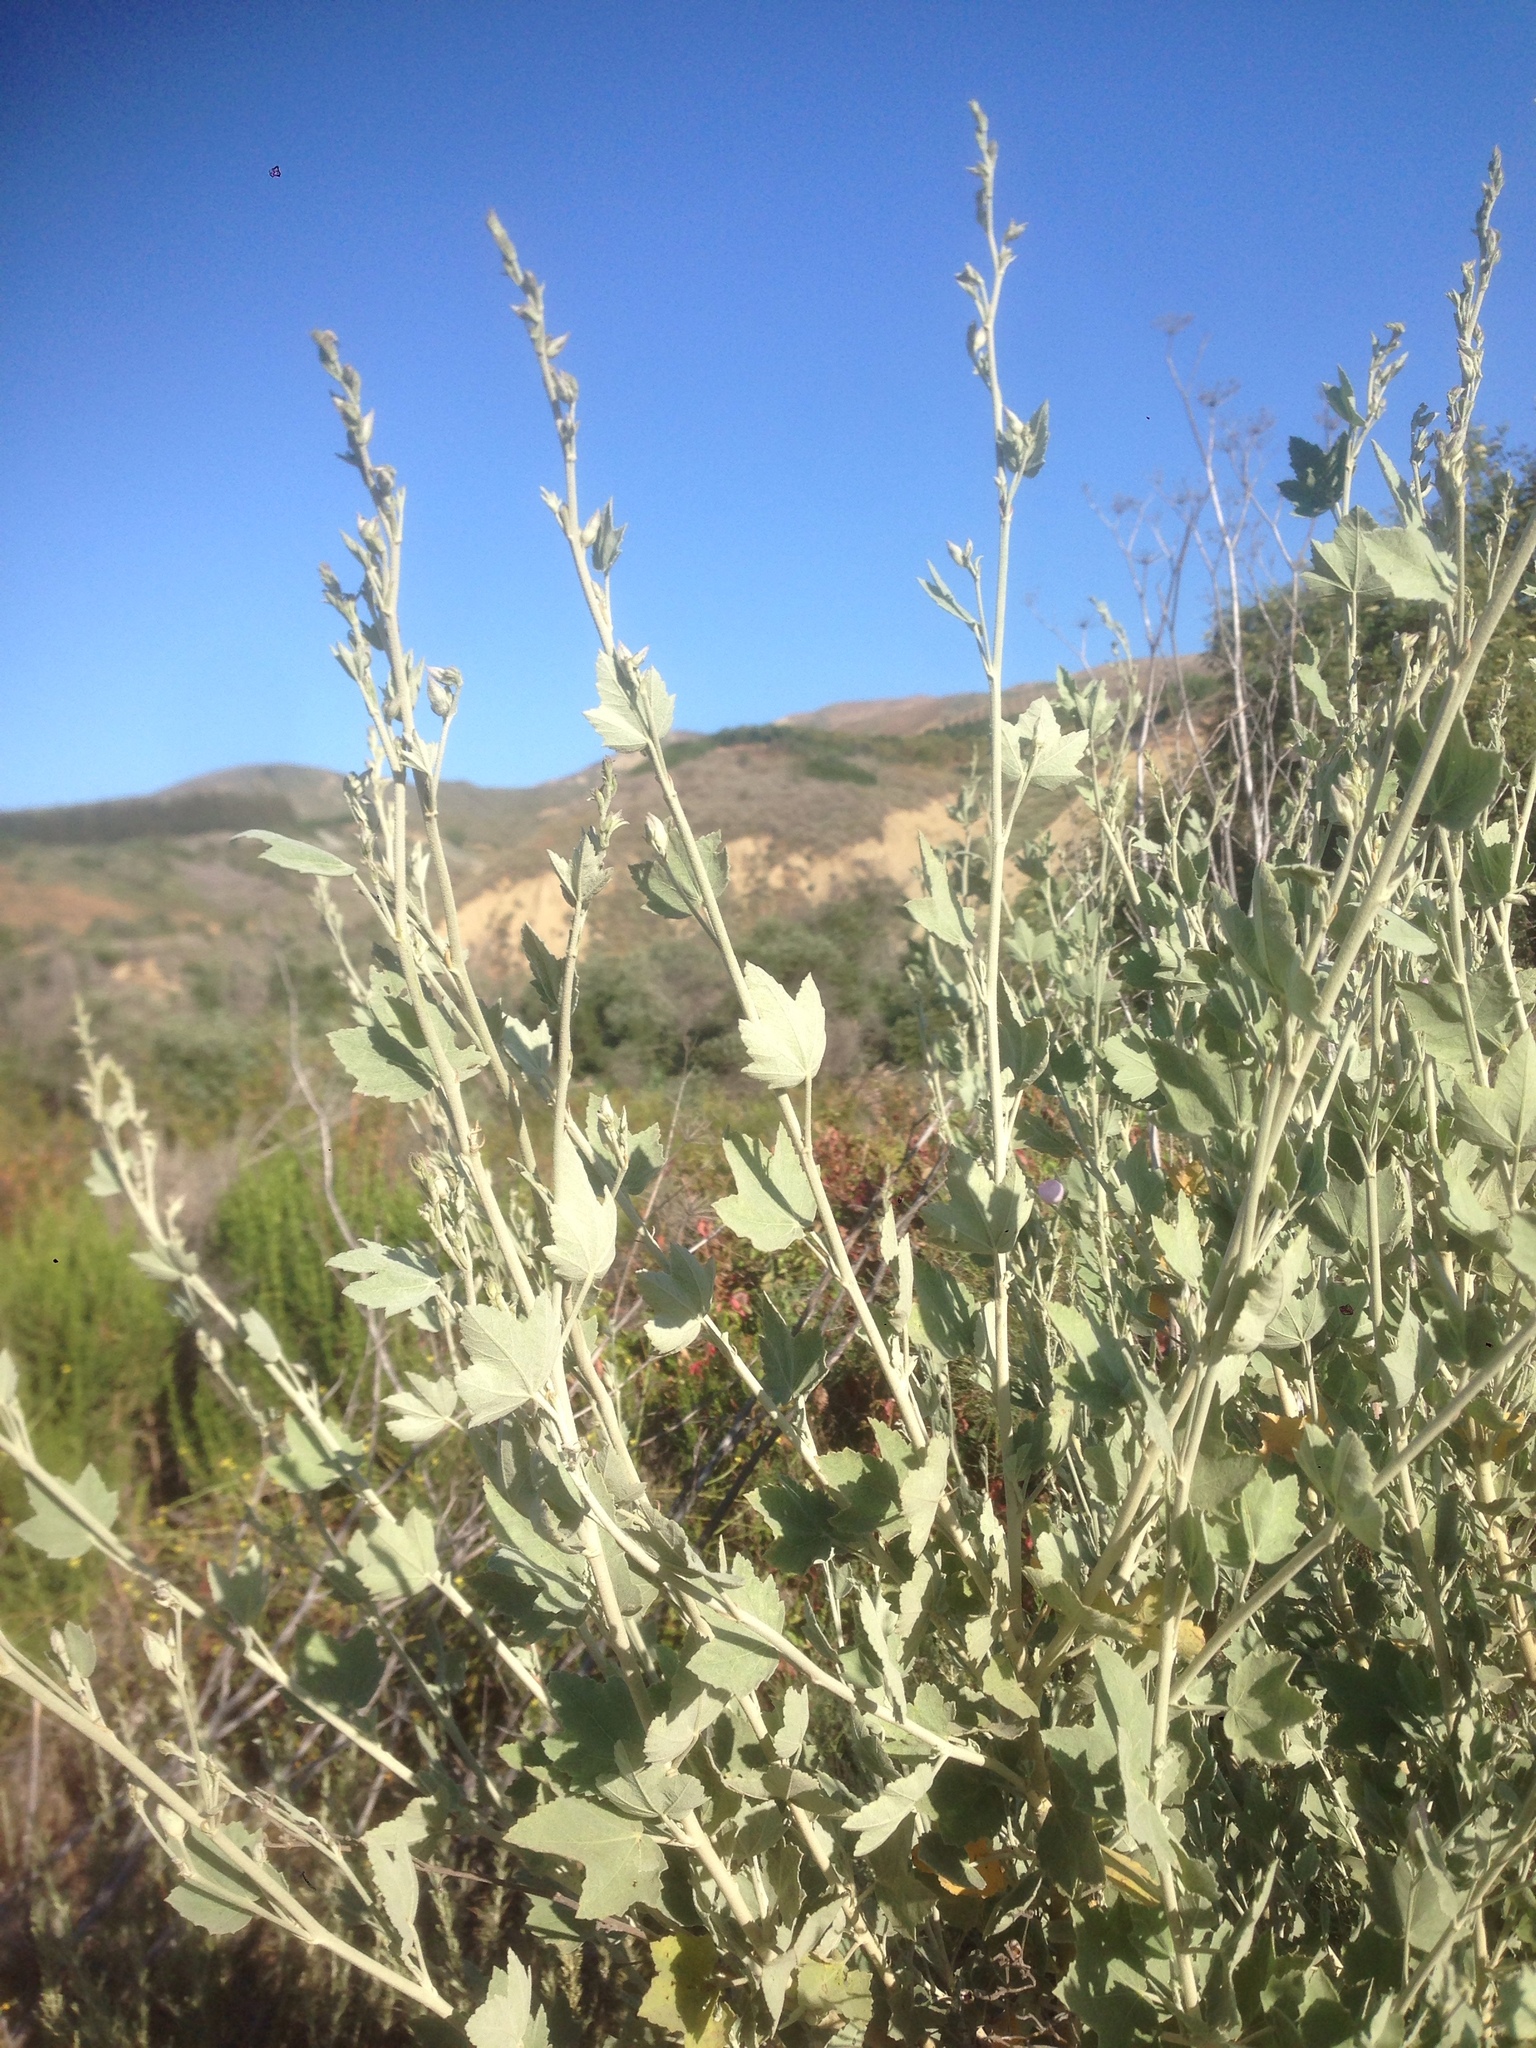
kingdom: Plantae
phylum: Tracheophyta
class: Magnoliopsida
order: Malvales
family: Malvaceae
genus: Malacothamnus
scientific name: Malacothamnus fasciculatus
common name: Sant cruz island bush-mallow
